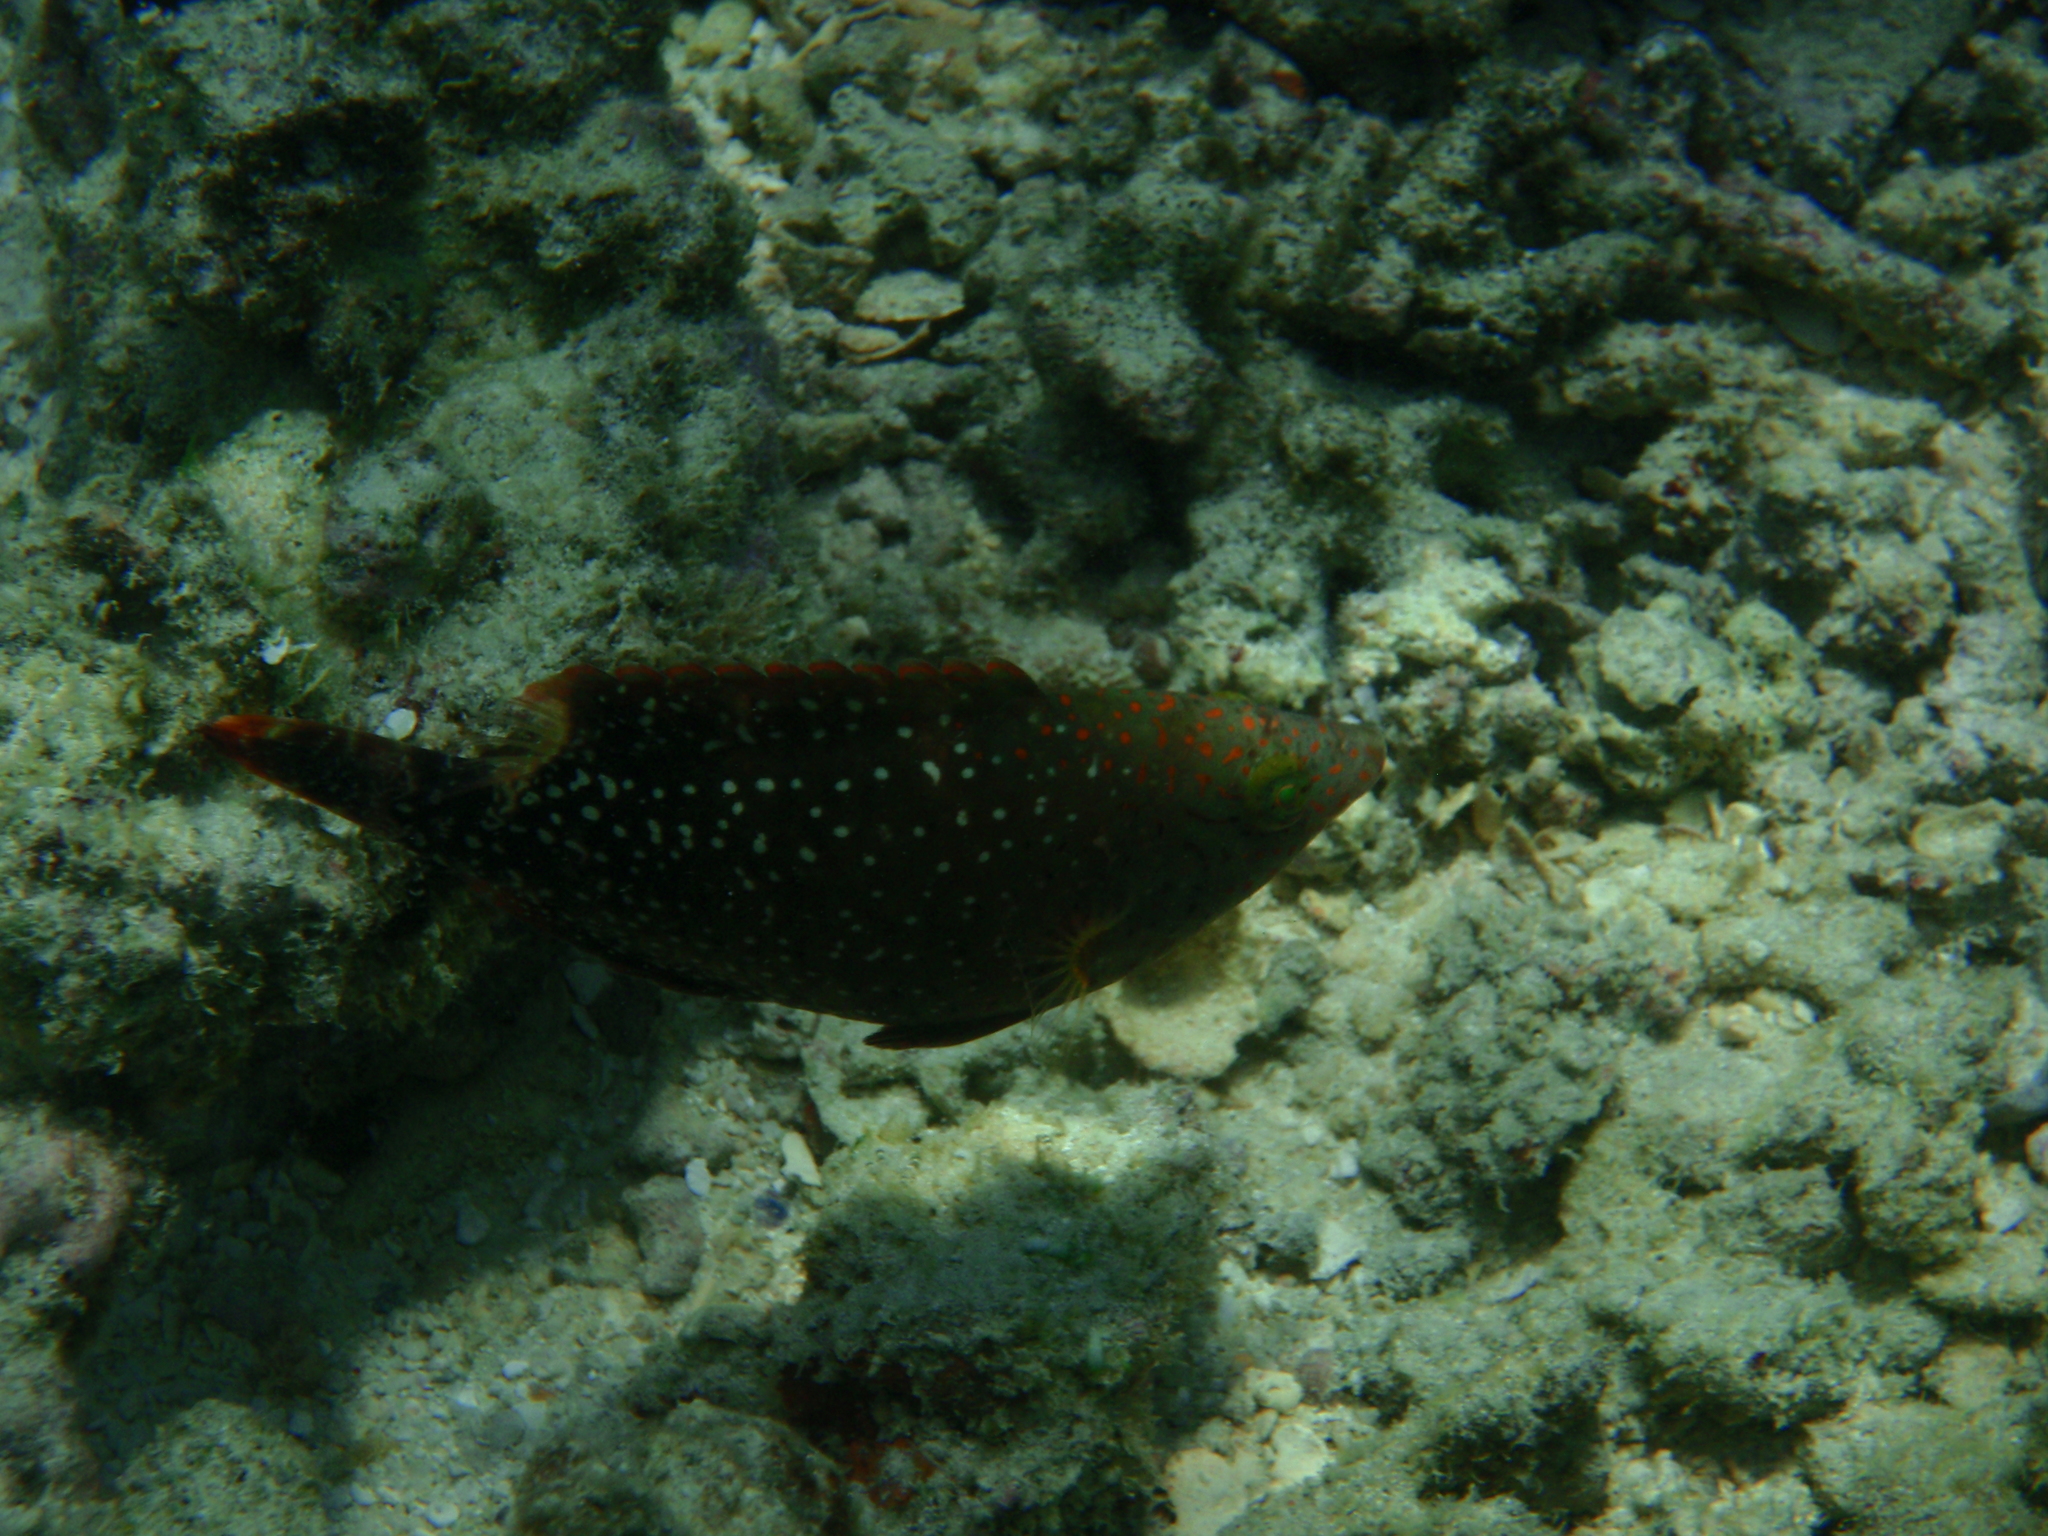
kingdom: Animalia
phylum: Chordata
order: Perciformes
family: Labridae
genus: Cheilinus
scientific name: Cheilinus chlorourus
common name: Floral wrasse
